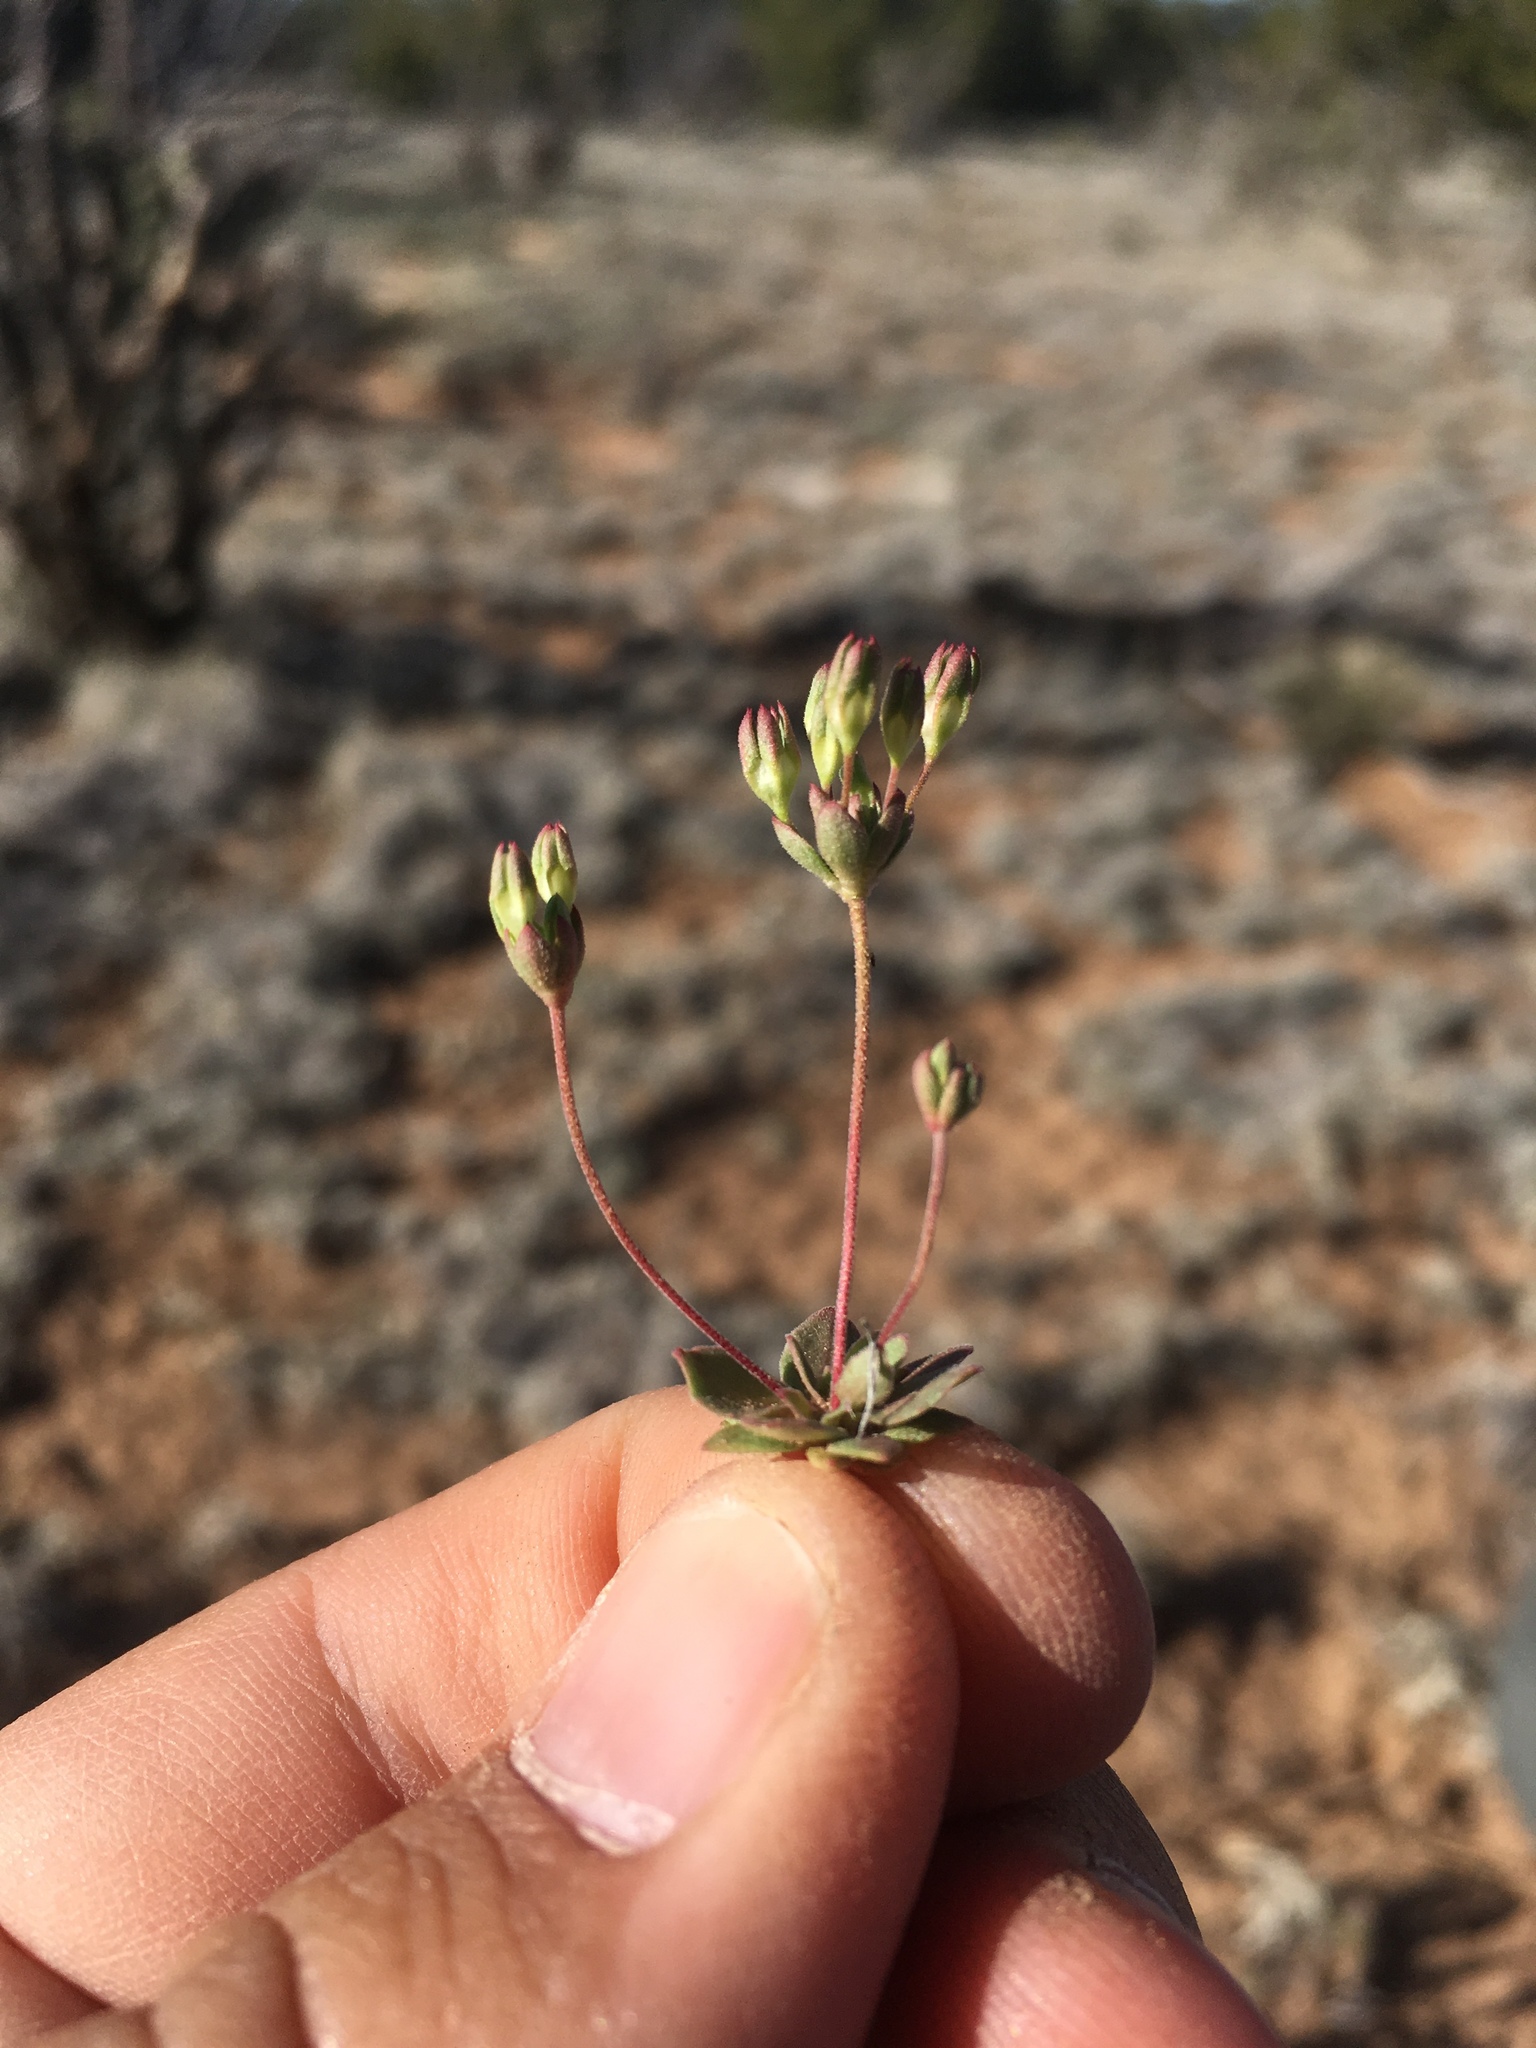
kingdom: Plantae
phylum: Tracheophyta
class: Magnoliopsida
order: Ericales
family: Primulaceae
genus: Androsace
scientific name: Androsace occidentalis
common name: West rock-jasmine
